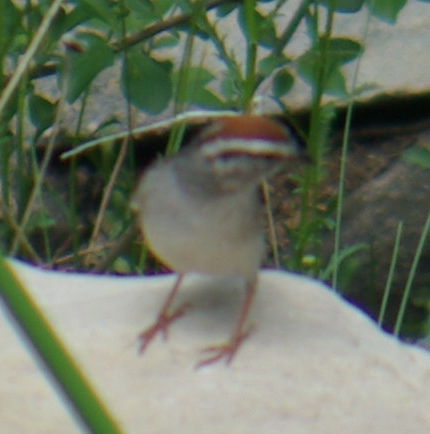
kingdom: Animalia
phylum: Chordata
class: Aves
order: Passeriformes
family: Passerellidae
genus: Spizella
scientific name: Spizella passerina
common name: Chipping sparrow
